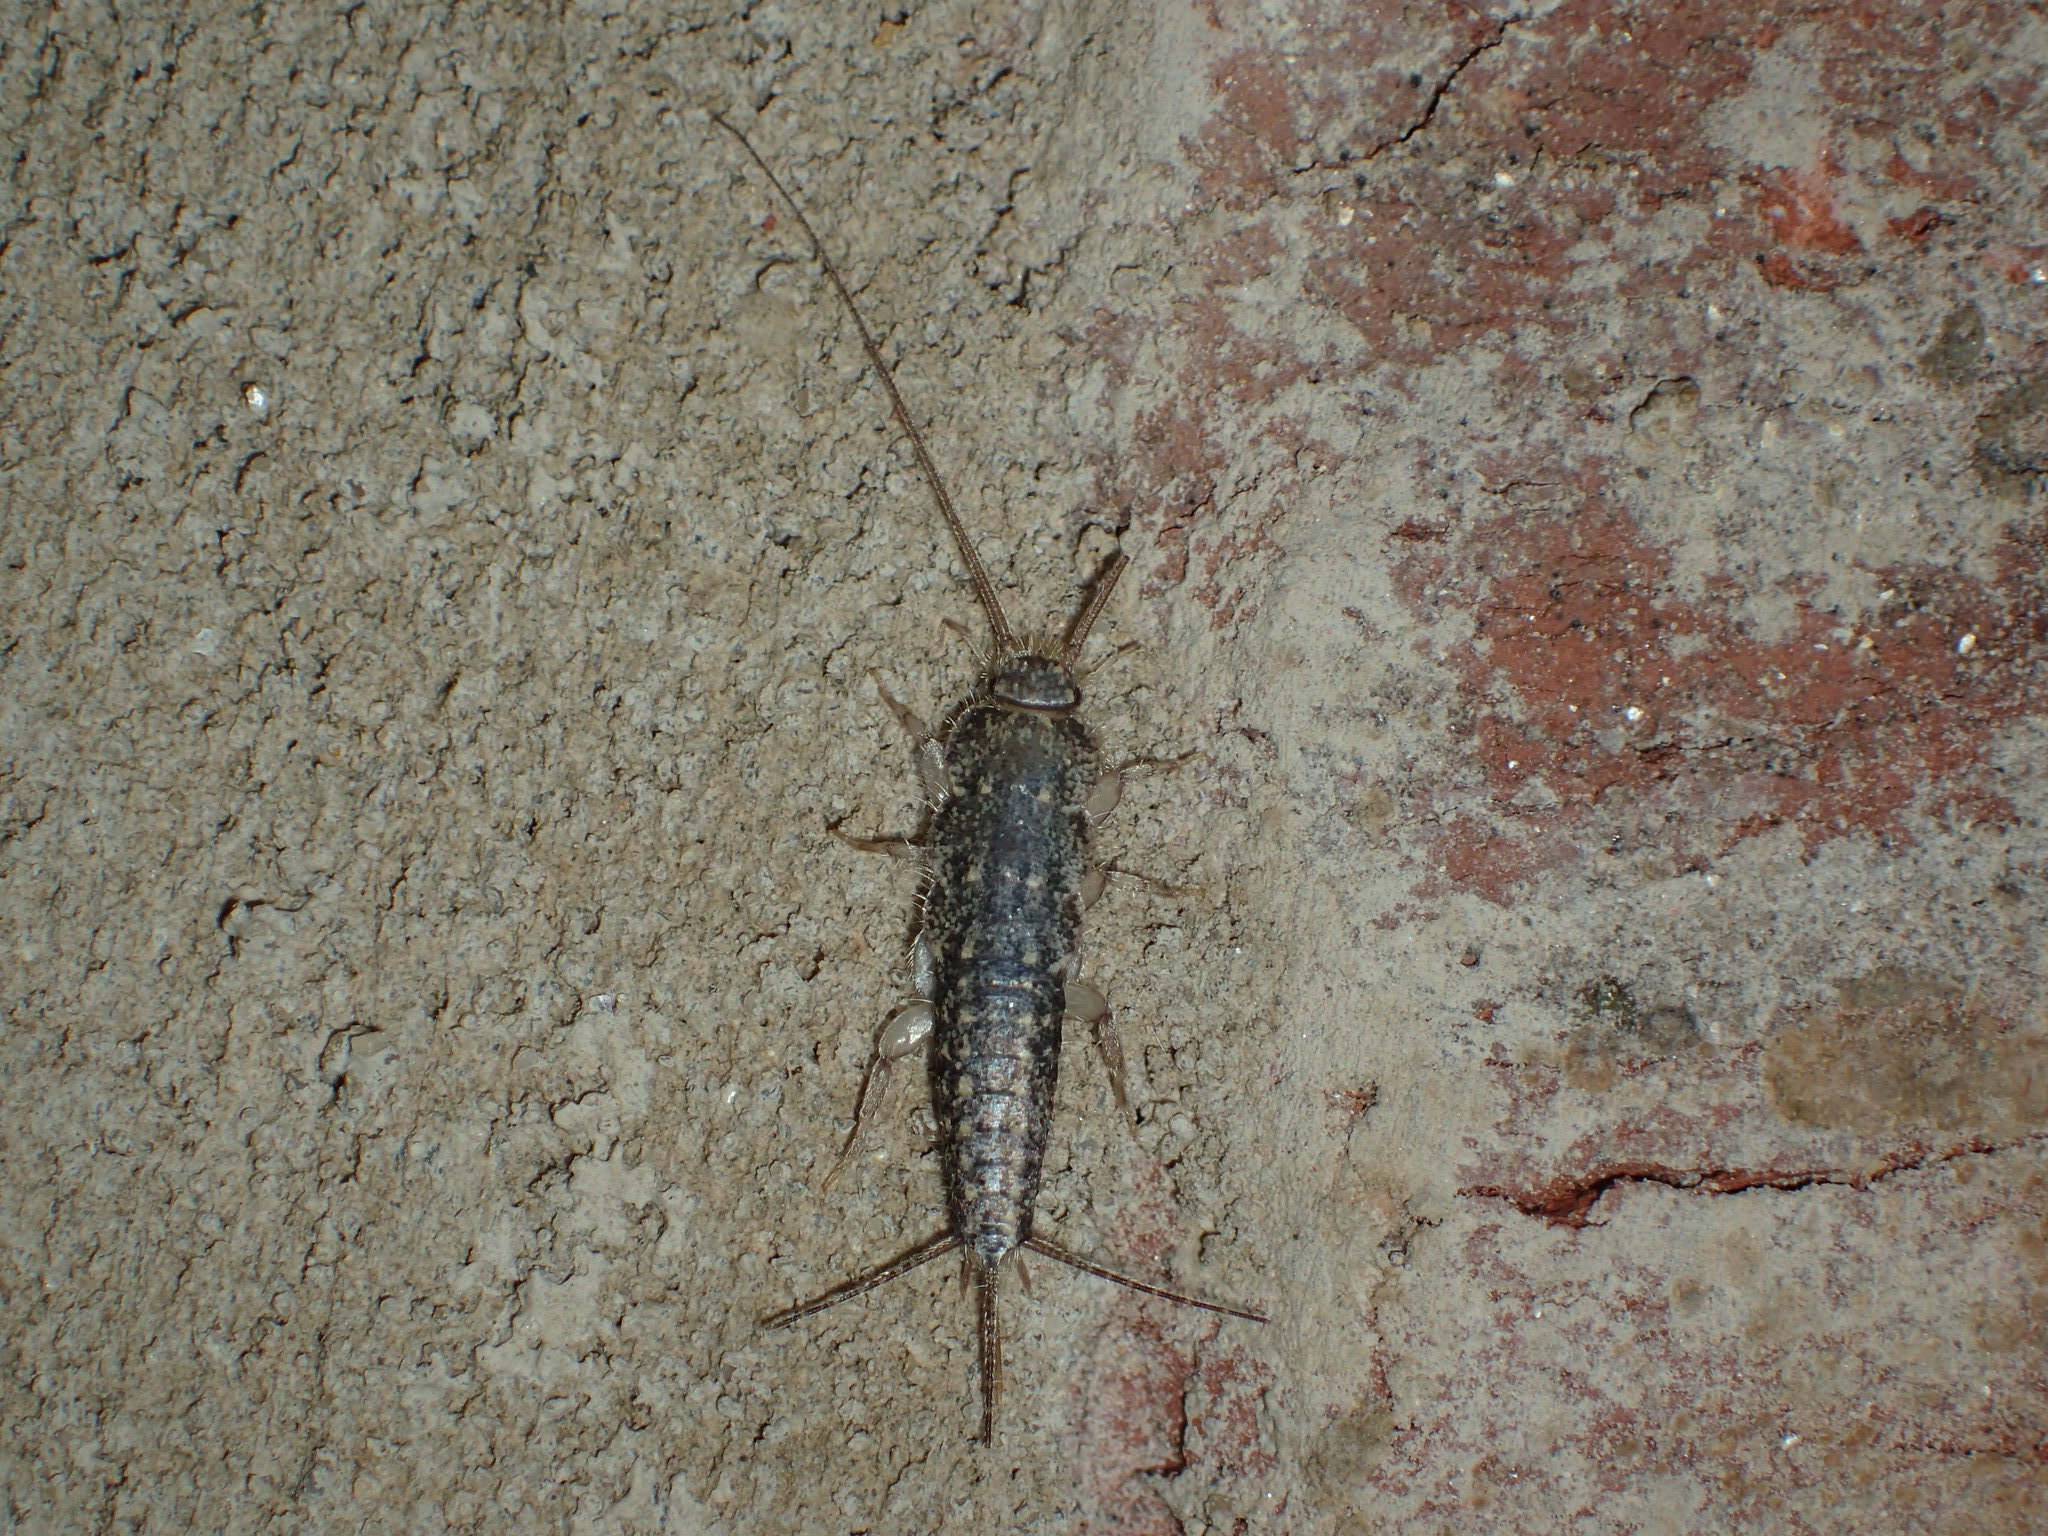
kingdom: Animalia
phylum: Arthropoda
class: Insecta
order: Zygentoma
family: Lepismatidae
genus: Ctenolepisma
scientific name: Ctenolepisma lineata
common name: Four-lined silverfish
